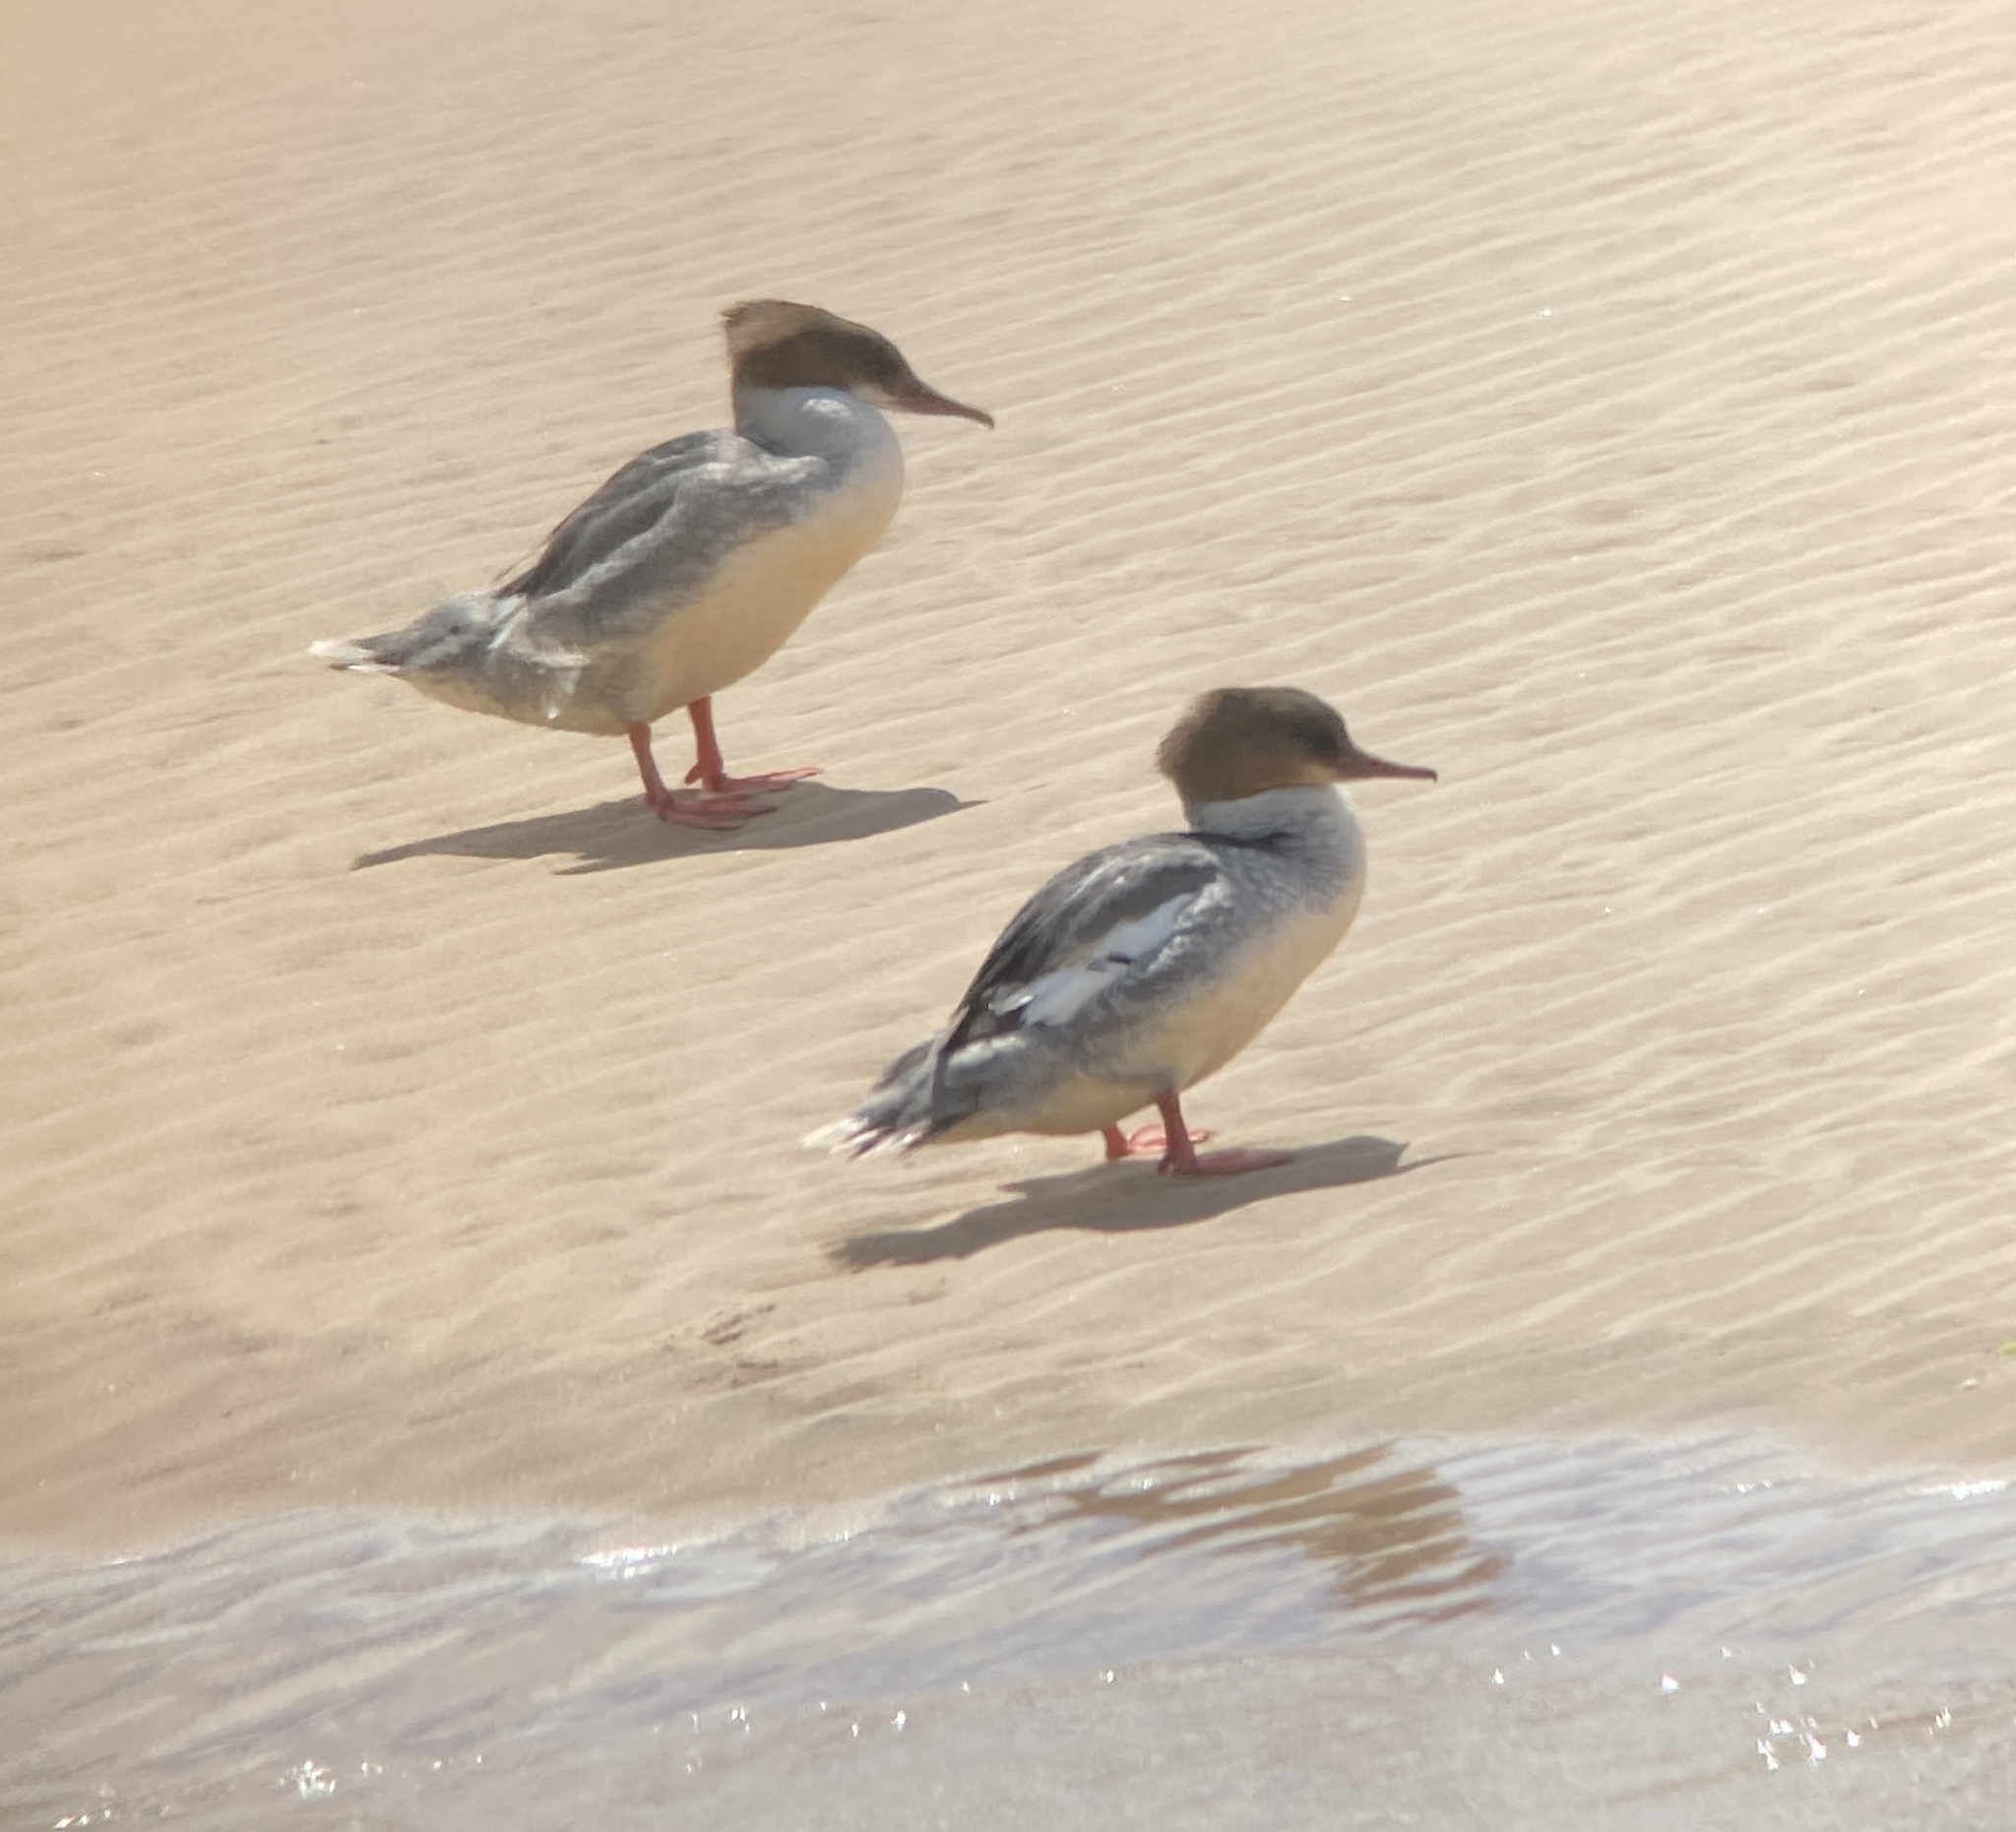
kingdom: Animalia
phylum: Chordata
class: Aves
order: Anseriformes
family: Anatidae
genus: Mergus
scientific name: Mergus merganser
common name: Common merganser
